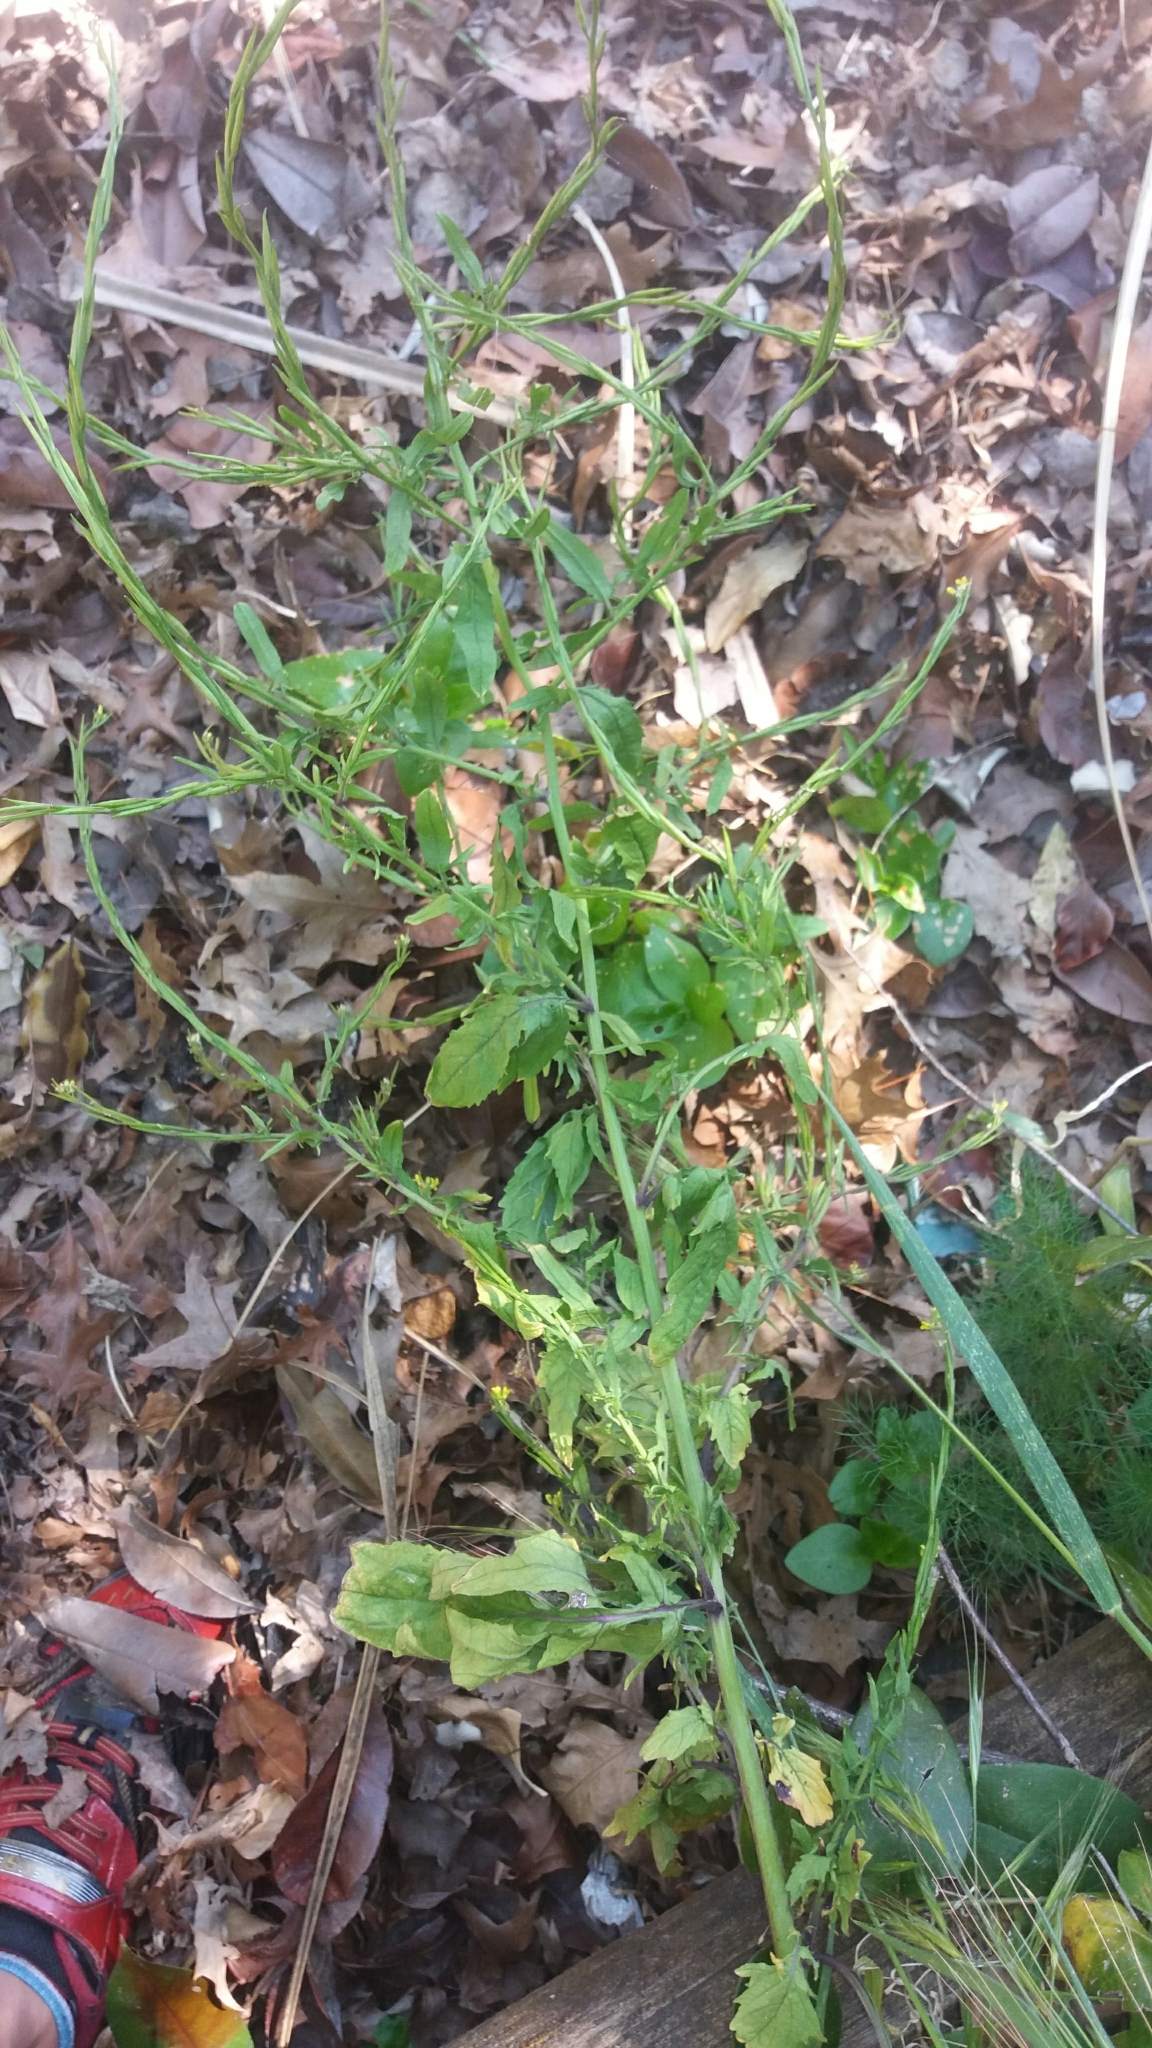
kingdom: Plantae
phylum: Tracheophyta
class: Magnoliopsida
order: Brassicales
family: Brassicaceae
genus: Sisymbrium
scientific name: Sisymbrium officinale
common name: Hedge mustard
